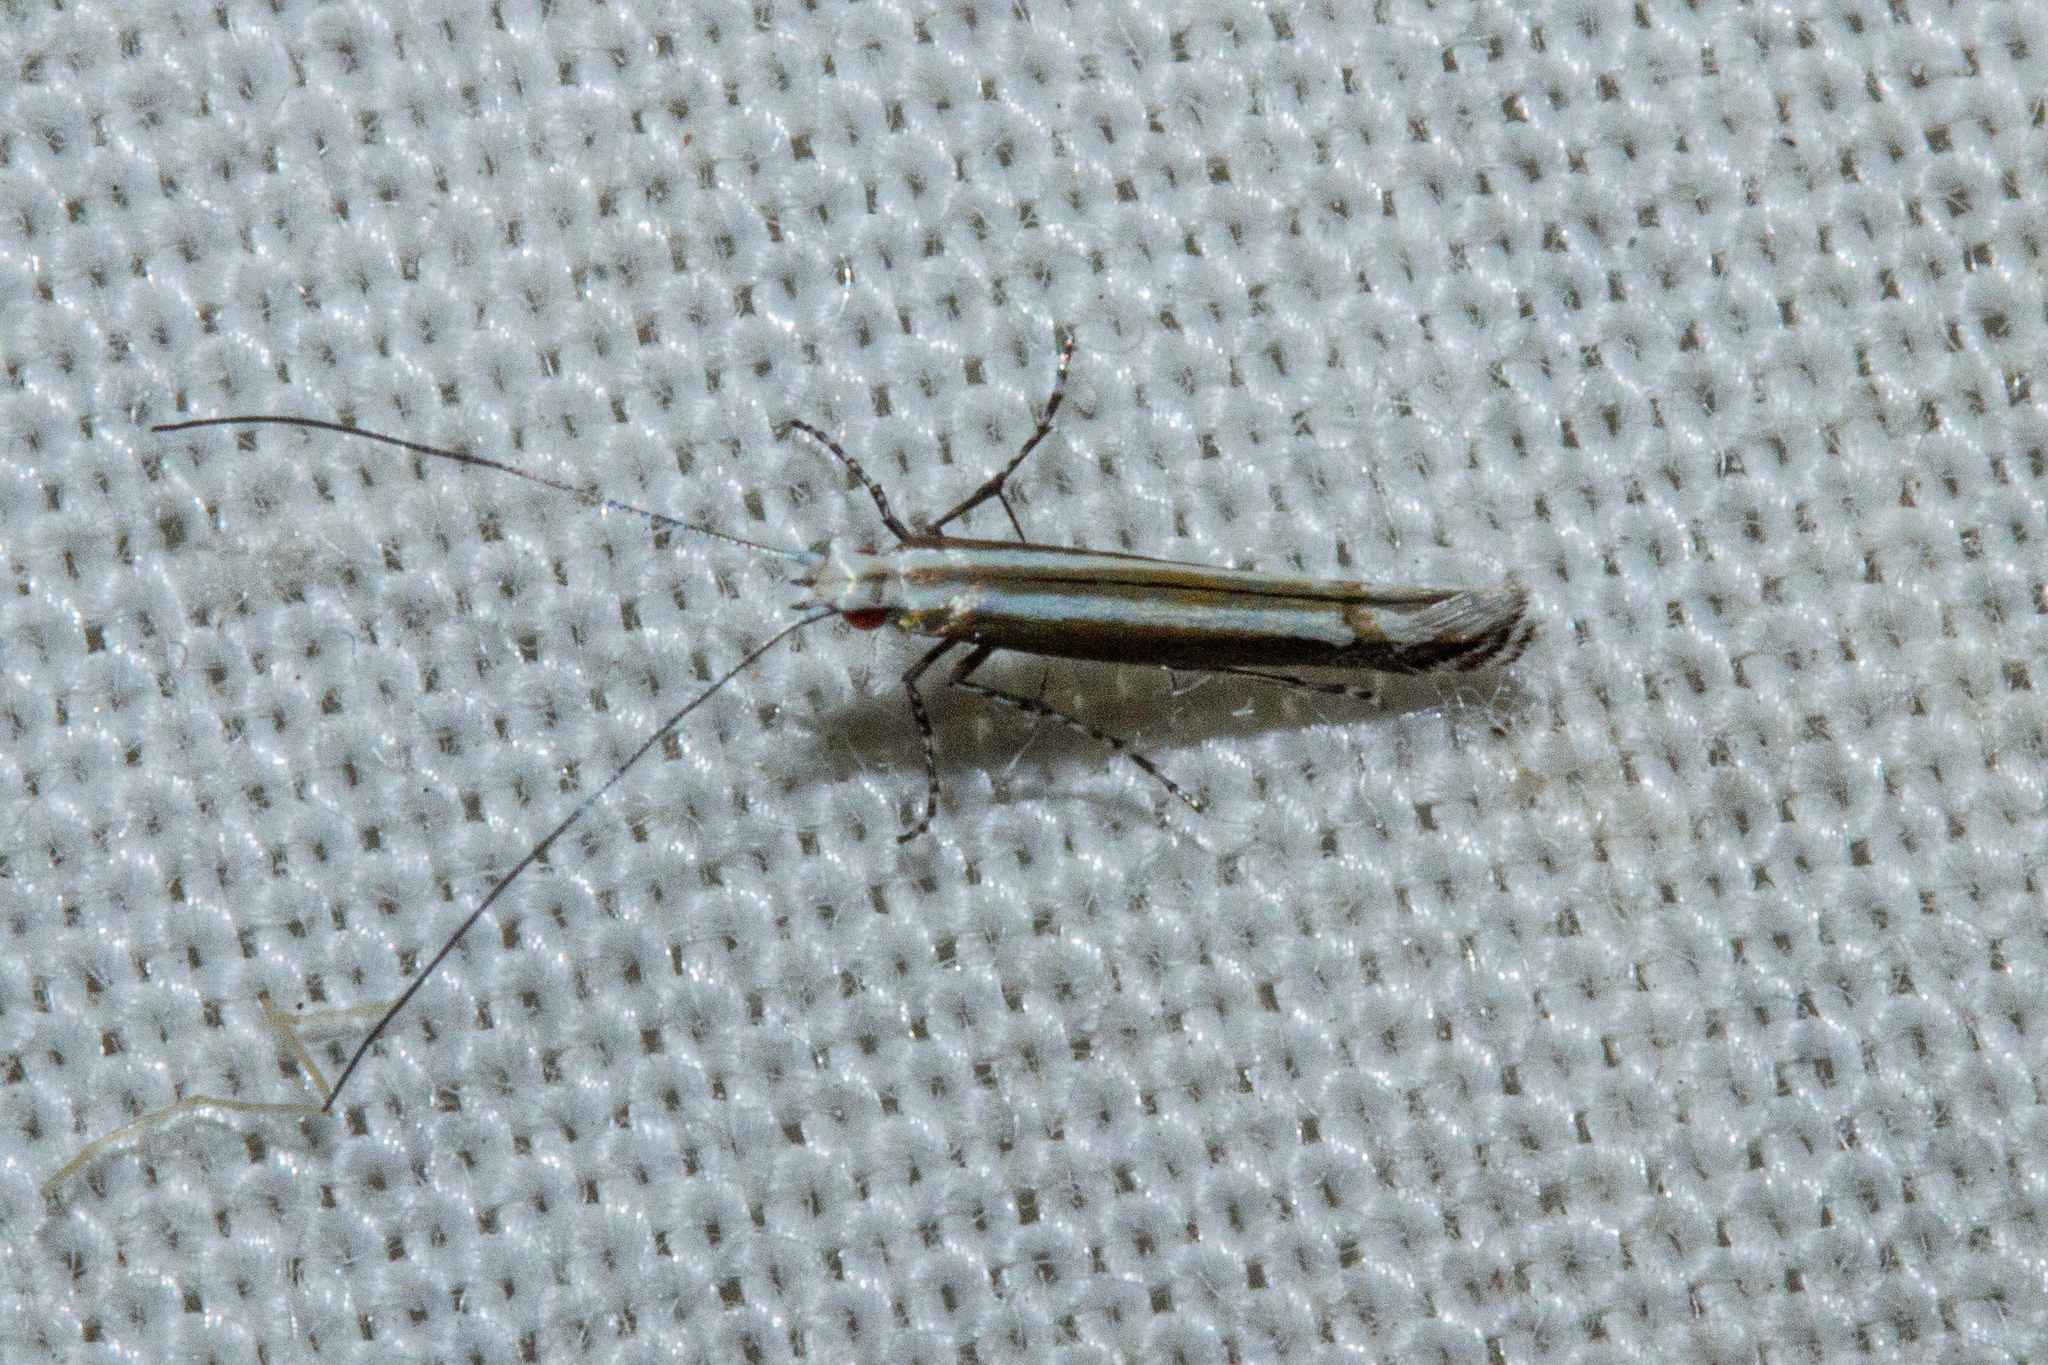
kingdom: Animalia
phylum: Arthropoda
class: Insecta
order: Lepidoptera
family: Gracillariidae
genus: Acrocercops
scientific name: Acrocercops laciniella
